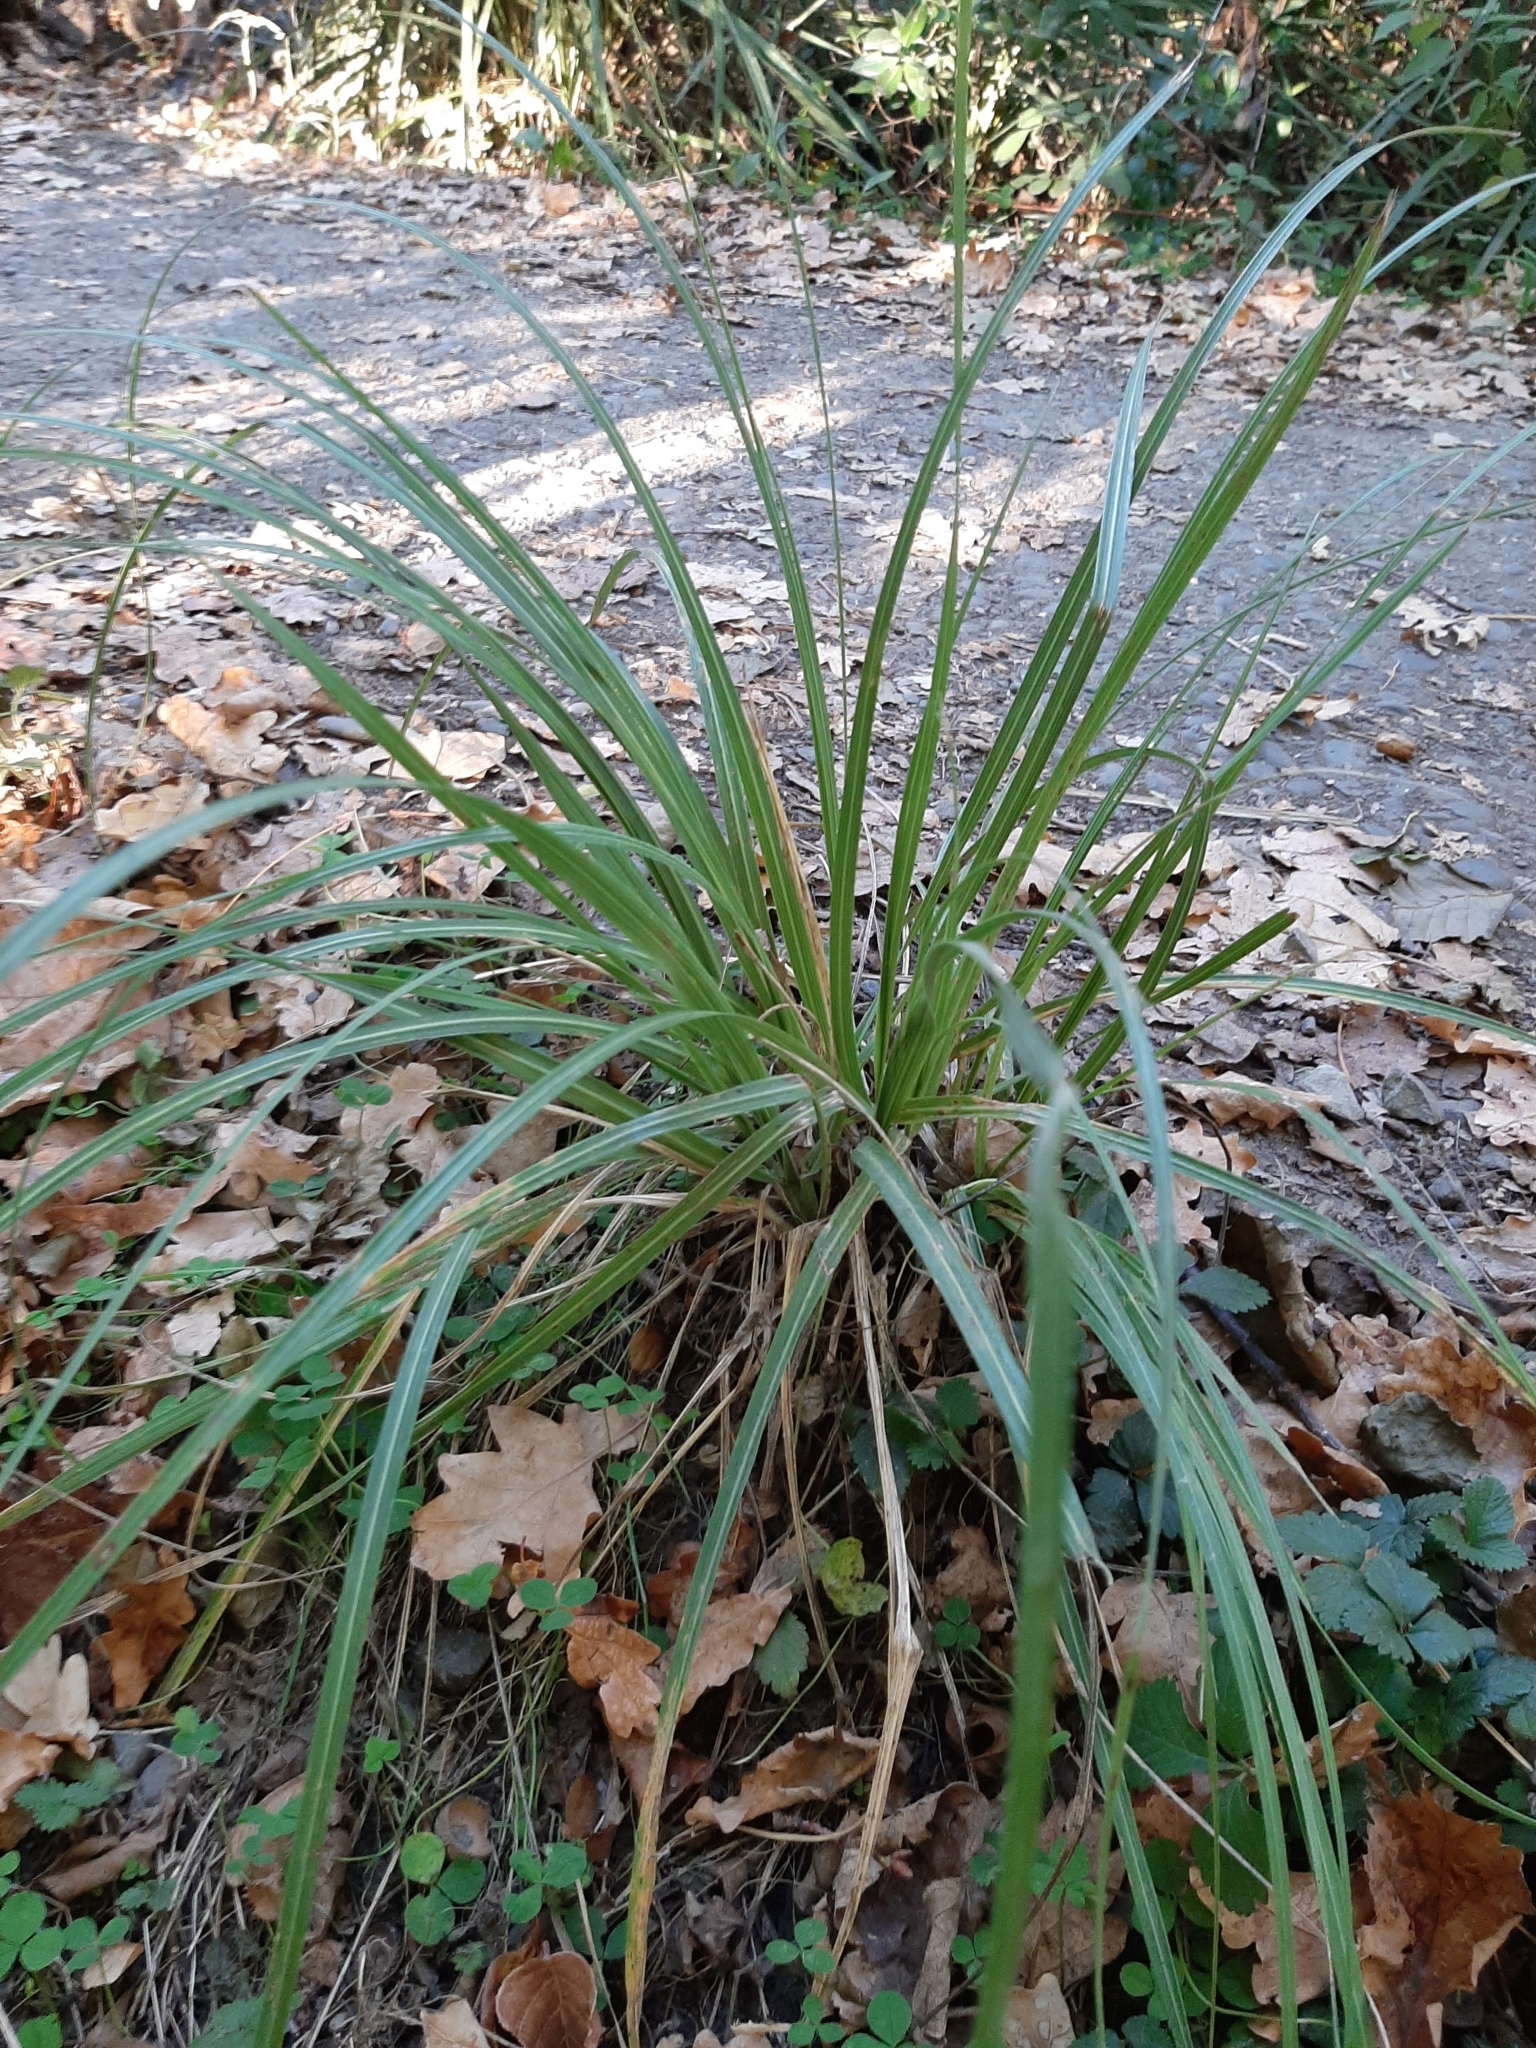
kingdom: Plantae
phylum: Tracheophyta
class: Liliopsida
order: Poales
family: Poaceae
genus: Austroderia
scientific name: Austroderia richardii
